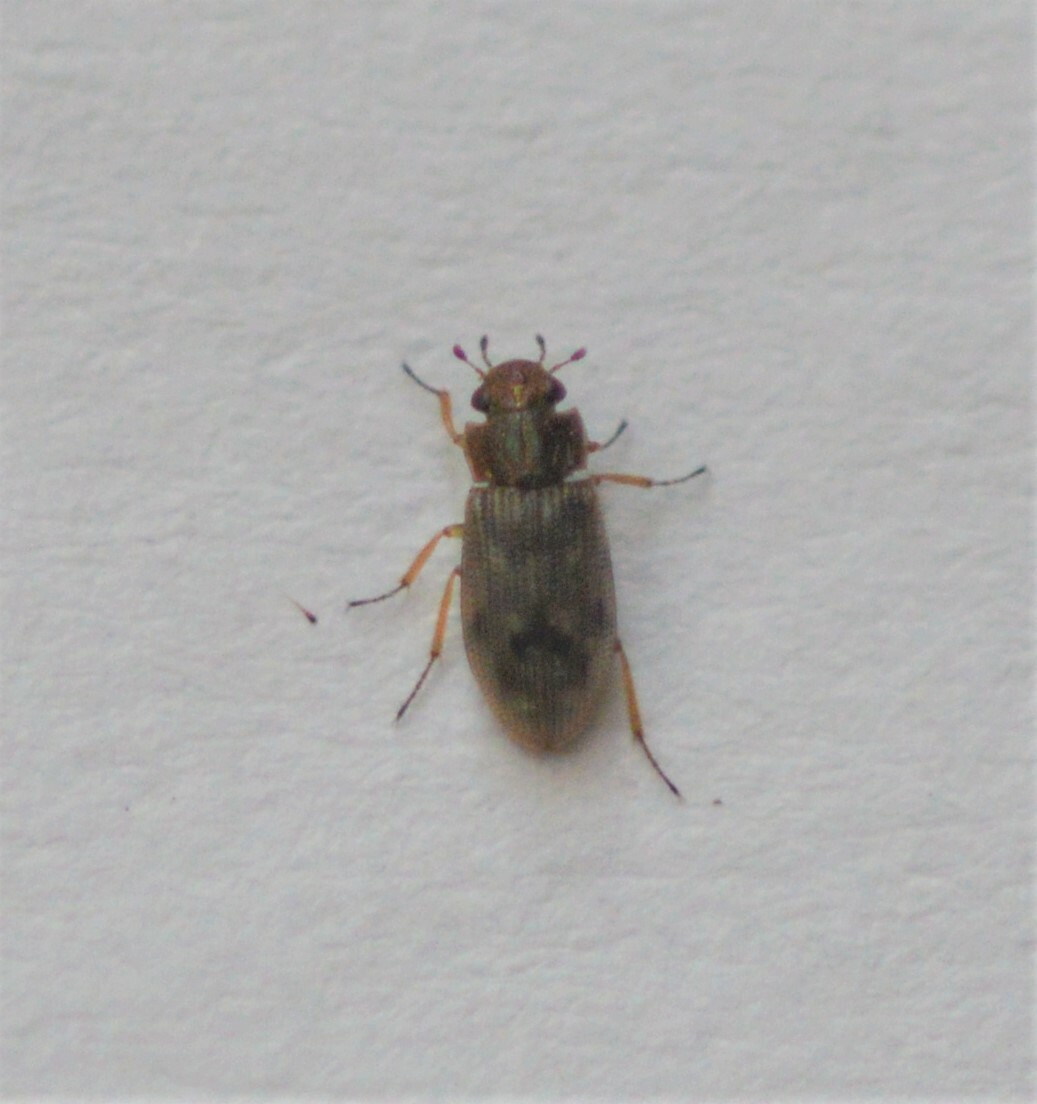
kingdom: Animalia
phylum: Arthropoda
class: Insecta
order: Coleoptera
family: Helophoridae
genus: Helophorus
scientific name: Helophorus
